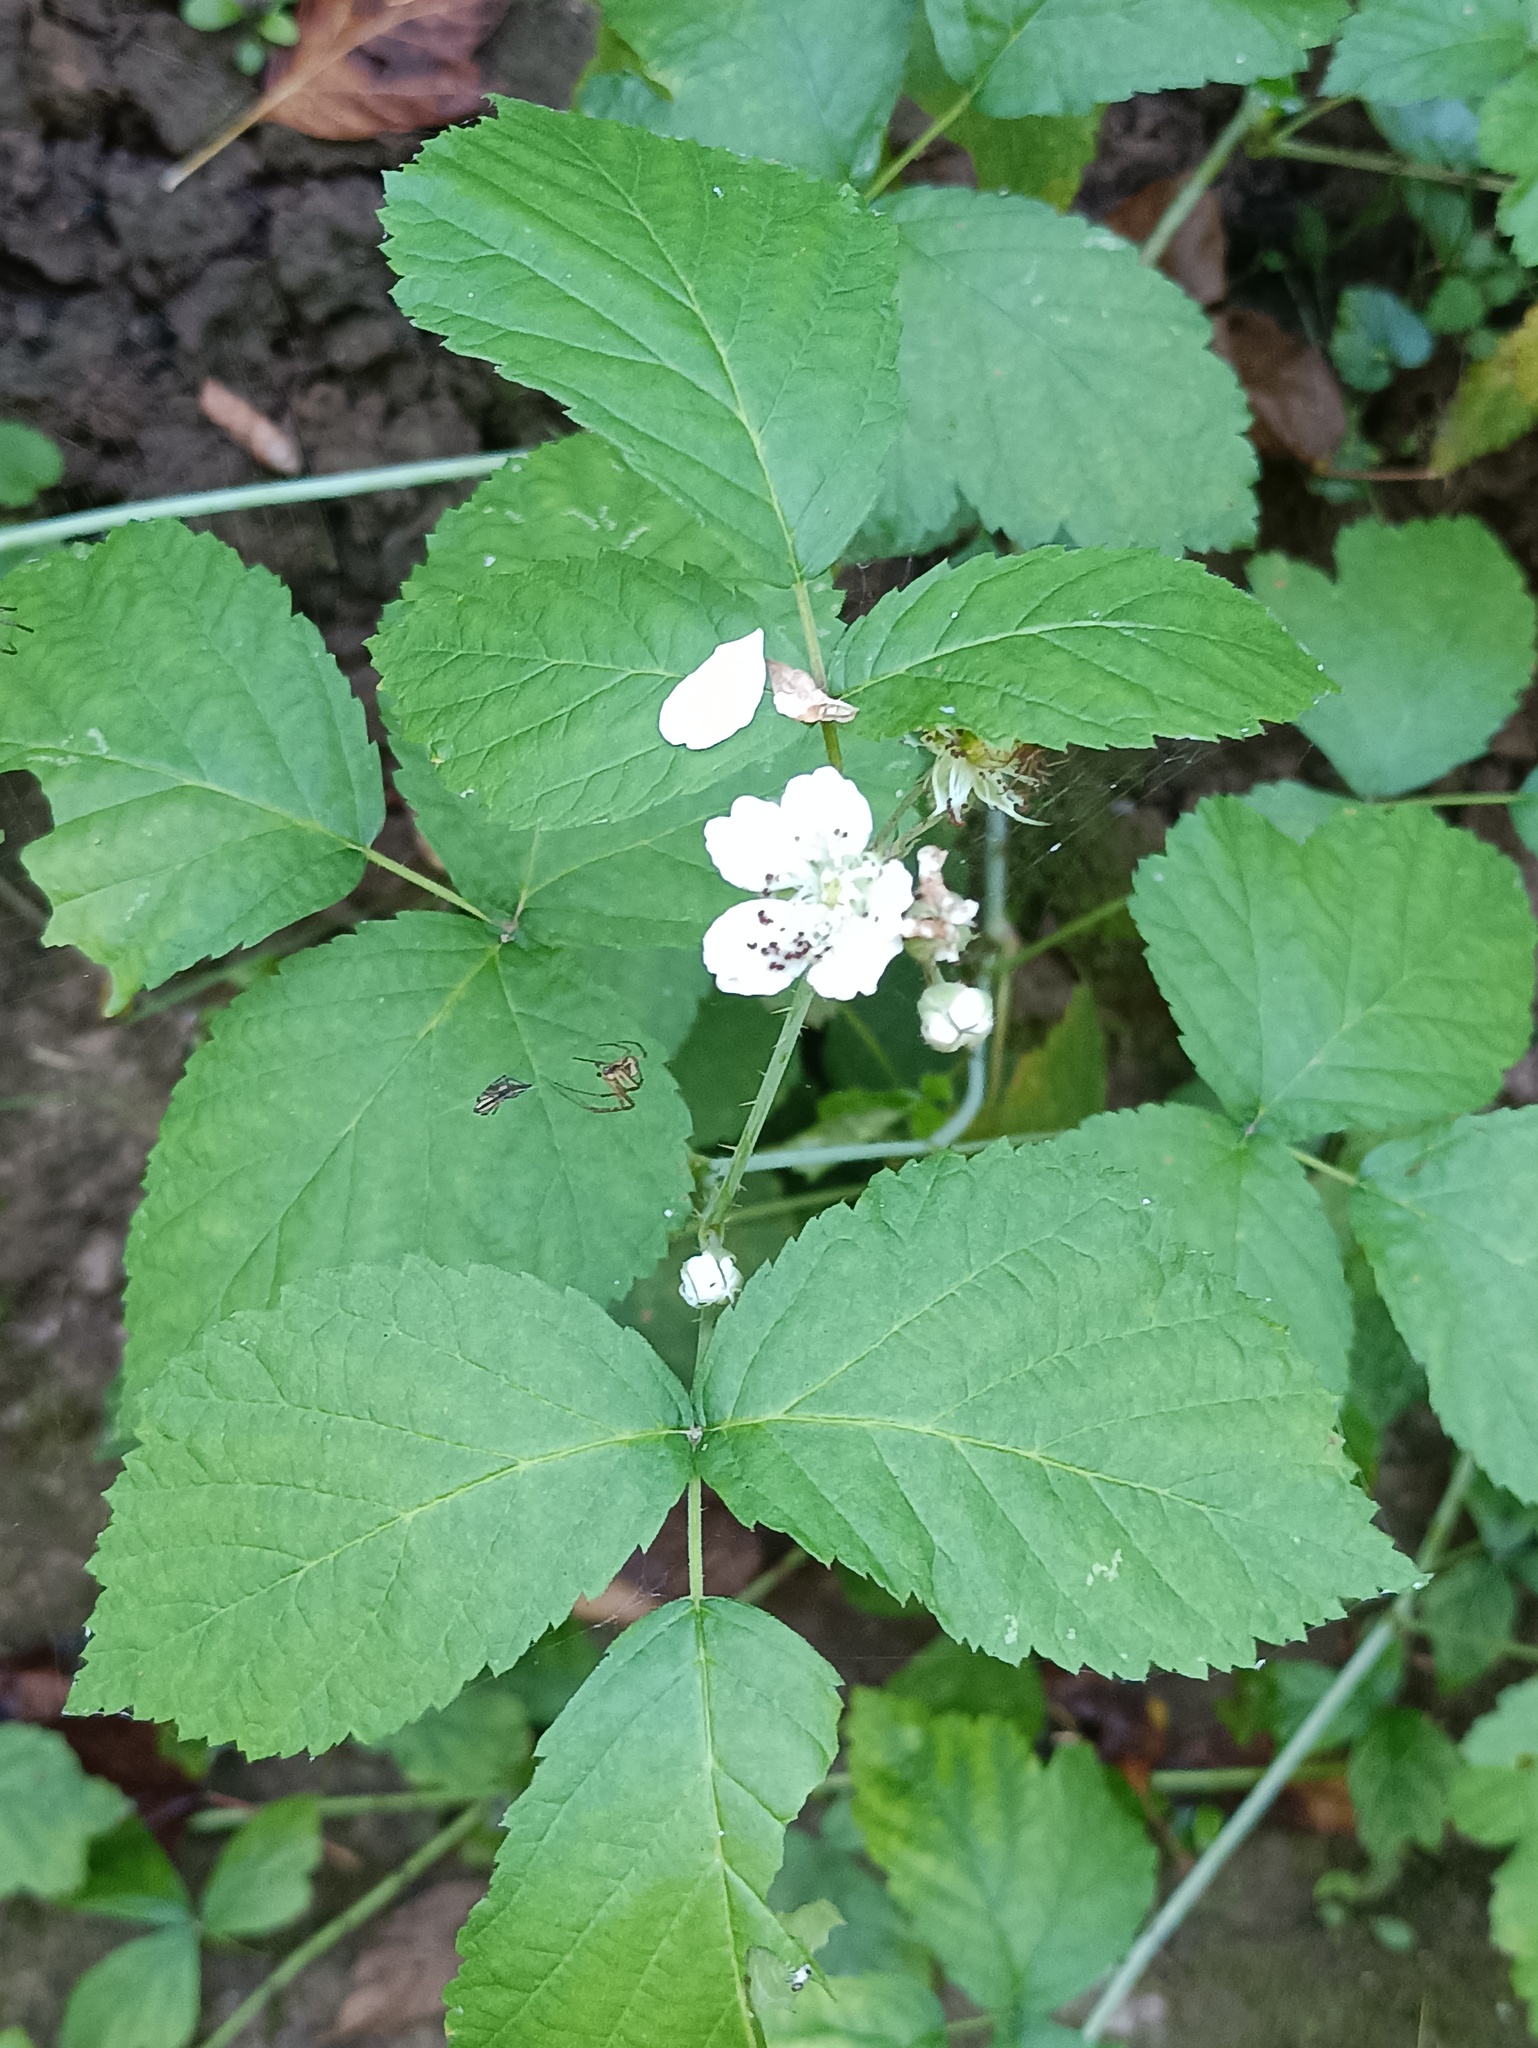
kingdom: Plantae
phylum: Tracheophyta
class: Magnoliopsida
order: Rosales
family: Rosaceae
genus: Rubus
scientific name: Rubus caesius
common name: Dewberry
